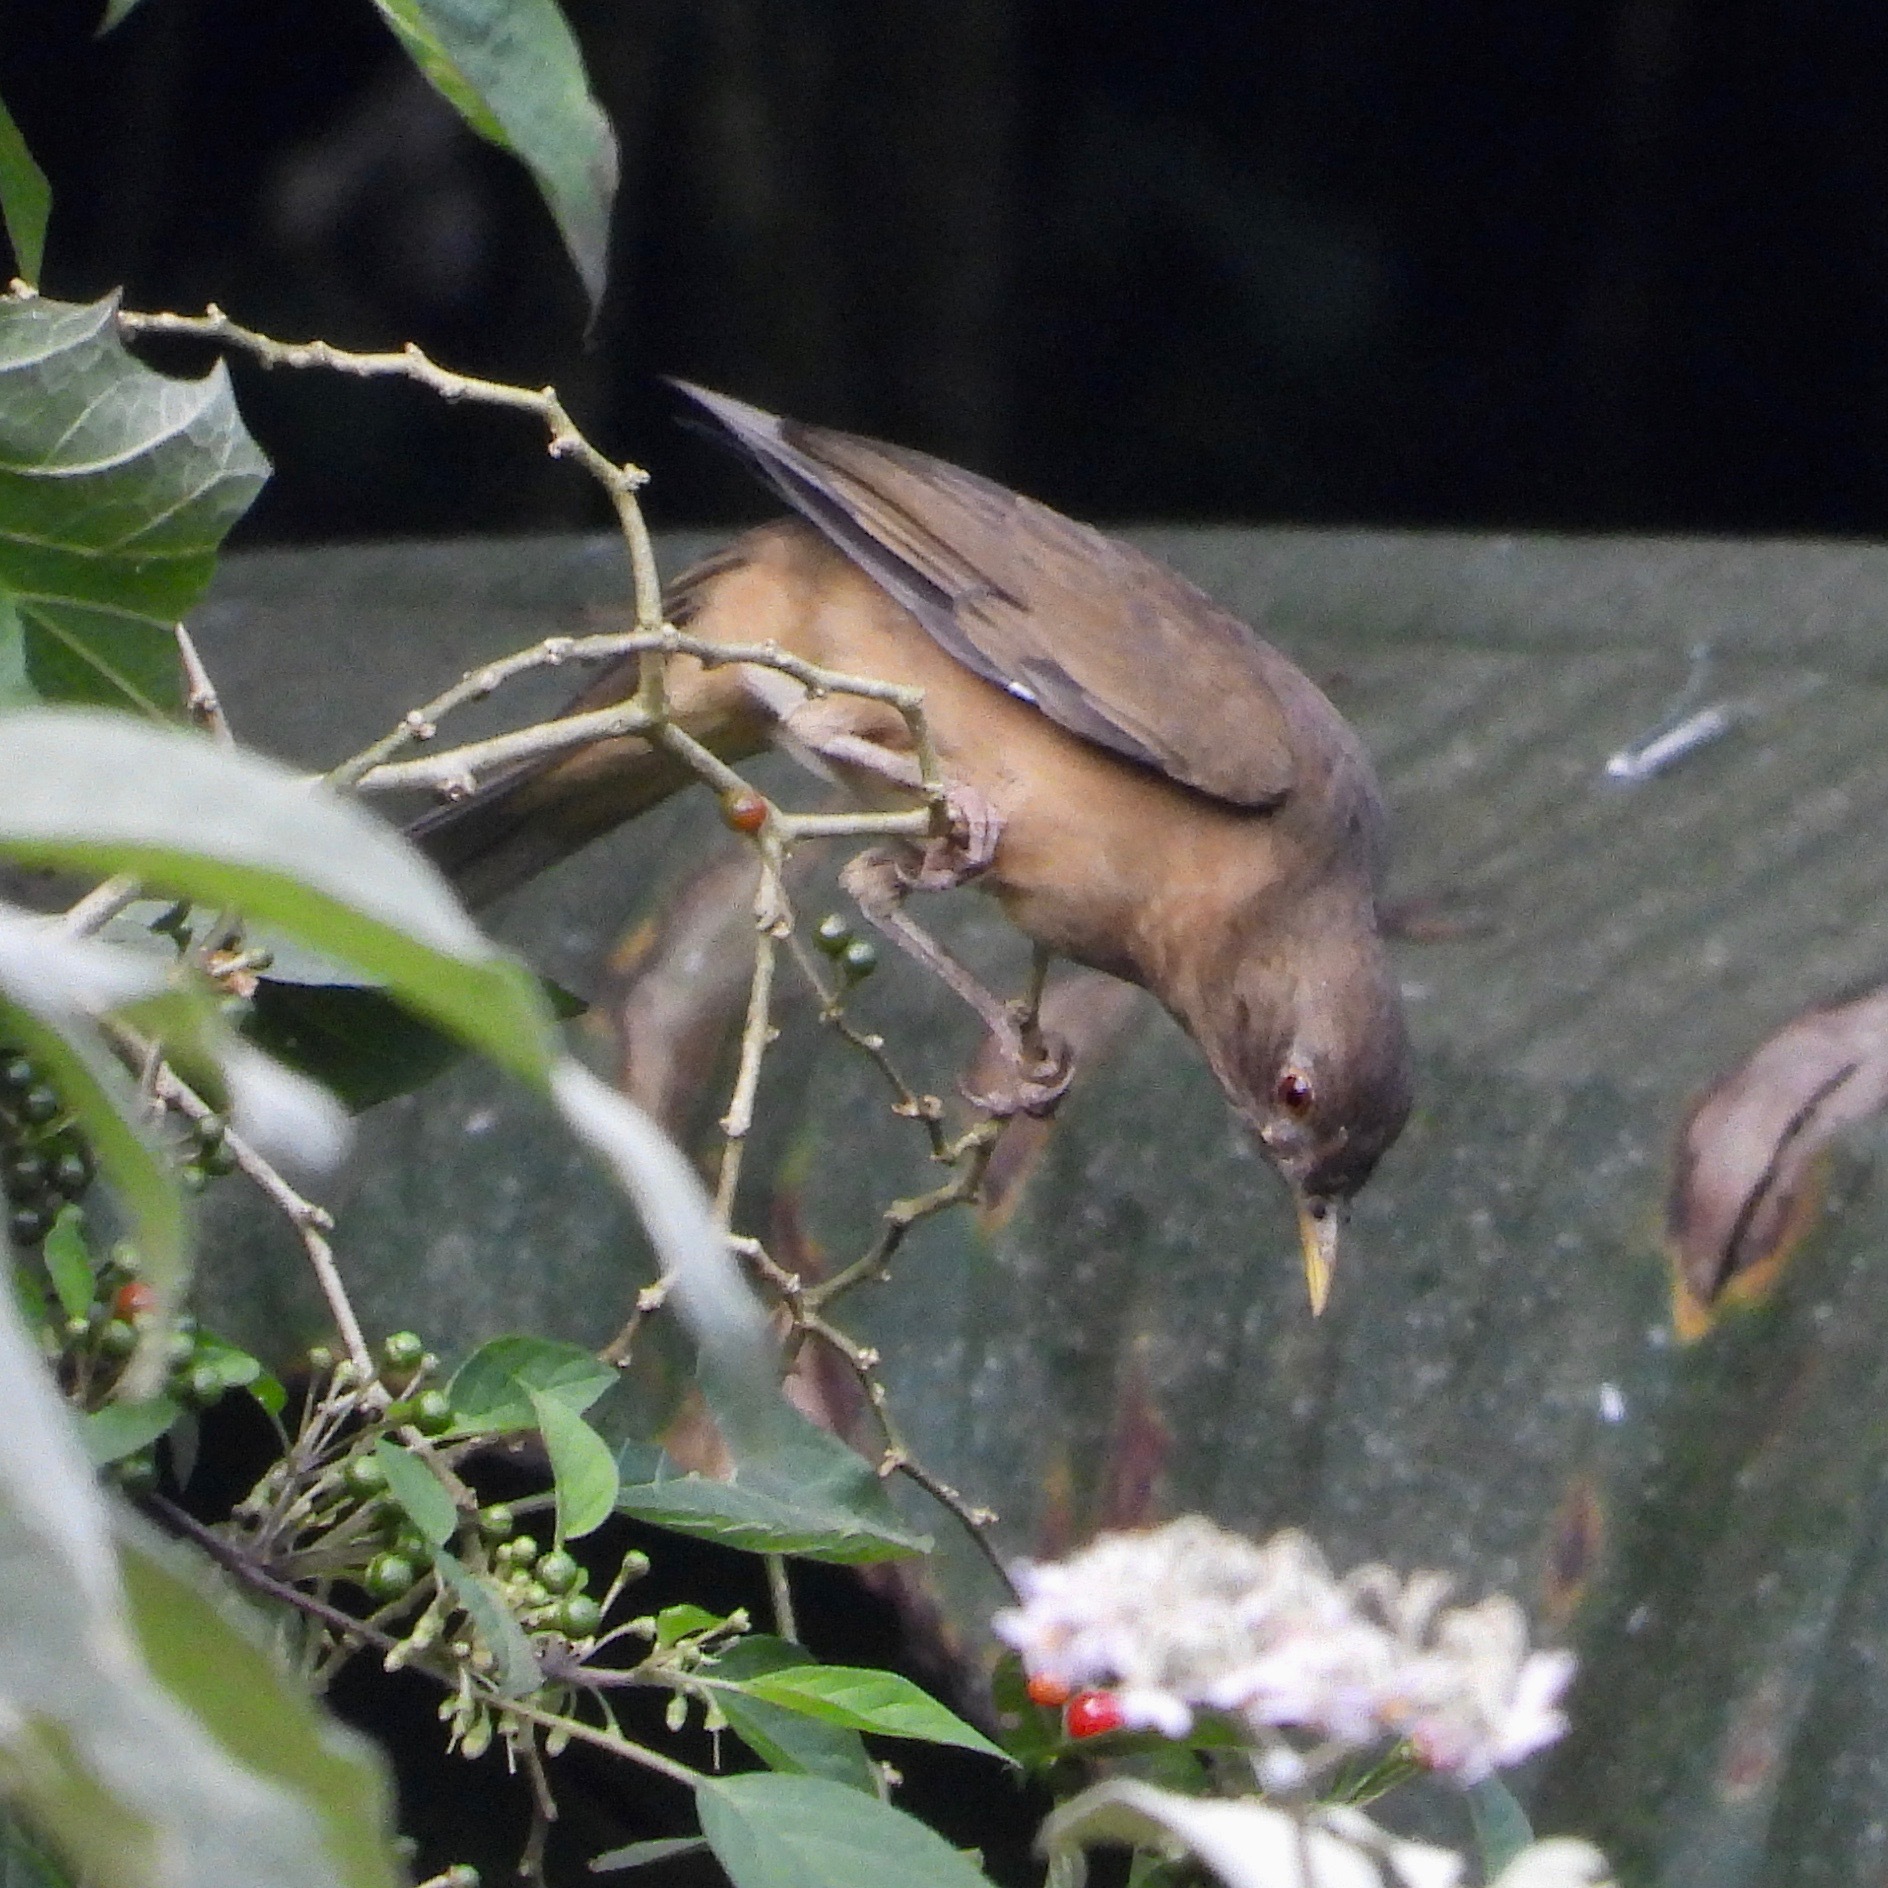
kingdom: Animalia
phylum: Chordata
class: Aves
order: Passeriformes
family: Turdidae
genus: Turdus
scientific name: Turdus grayi
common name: Clay-colored thrush
